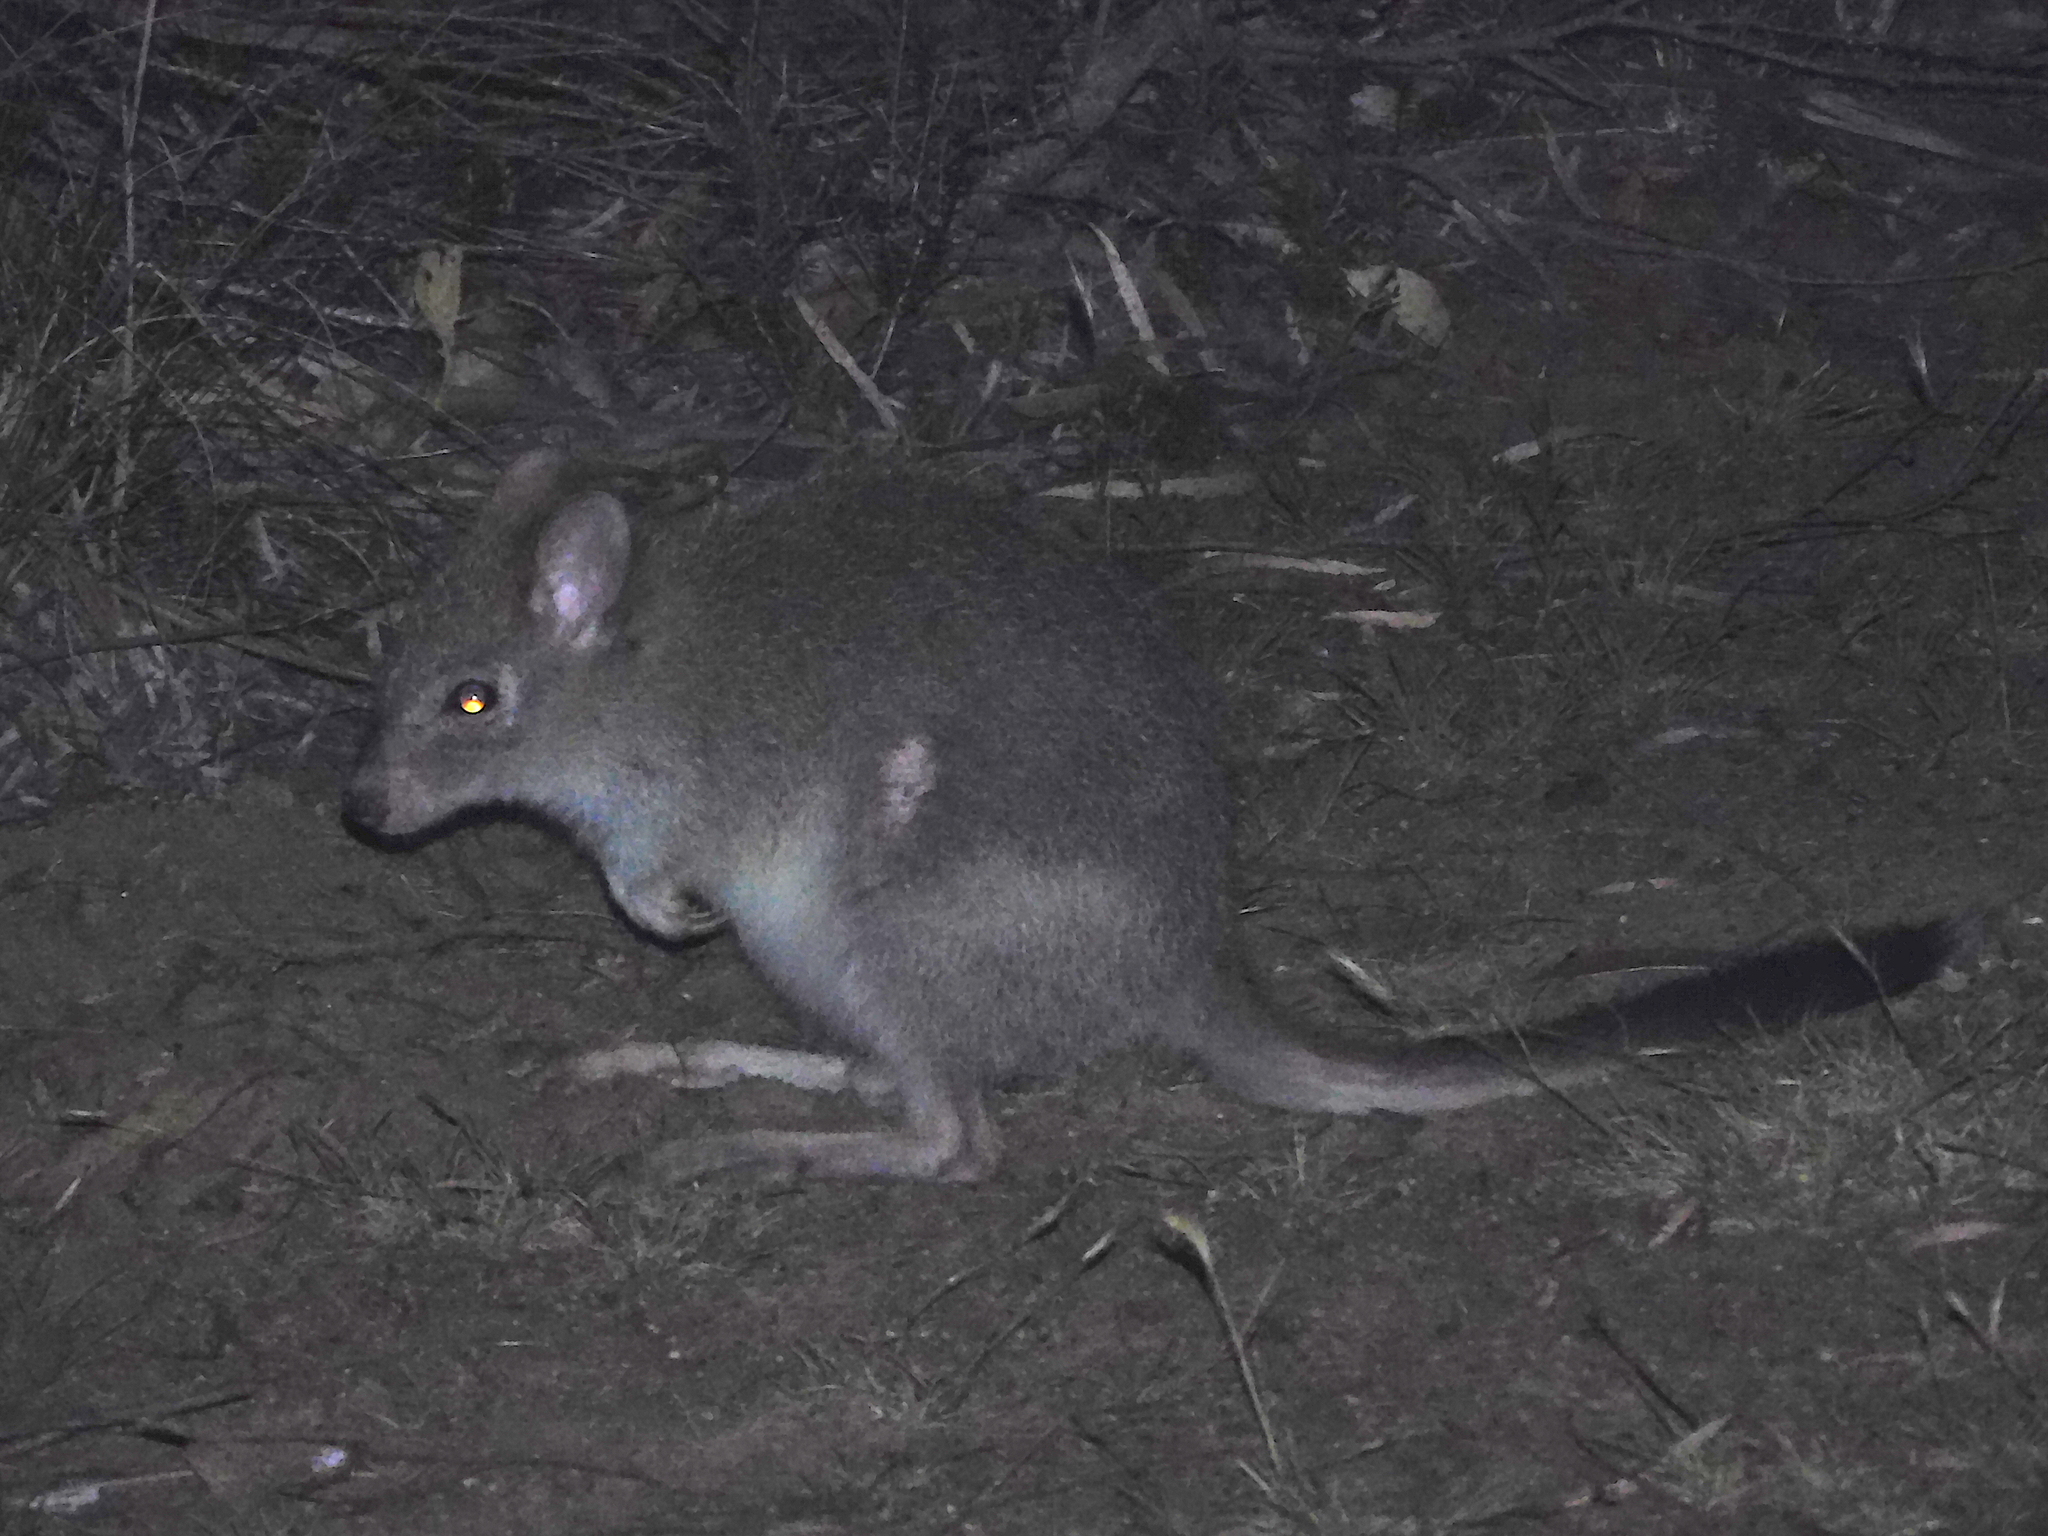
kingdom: Animalia
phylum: Chordata
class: Mammalia
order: Diprotodontia
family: Potoroidae
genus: Bettongia
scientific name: Bettongia gaimardi
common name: Eastern bettong
